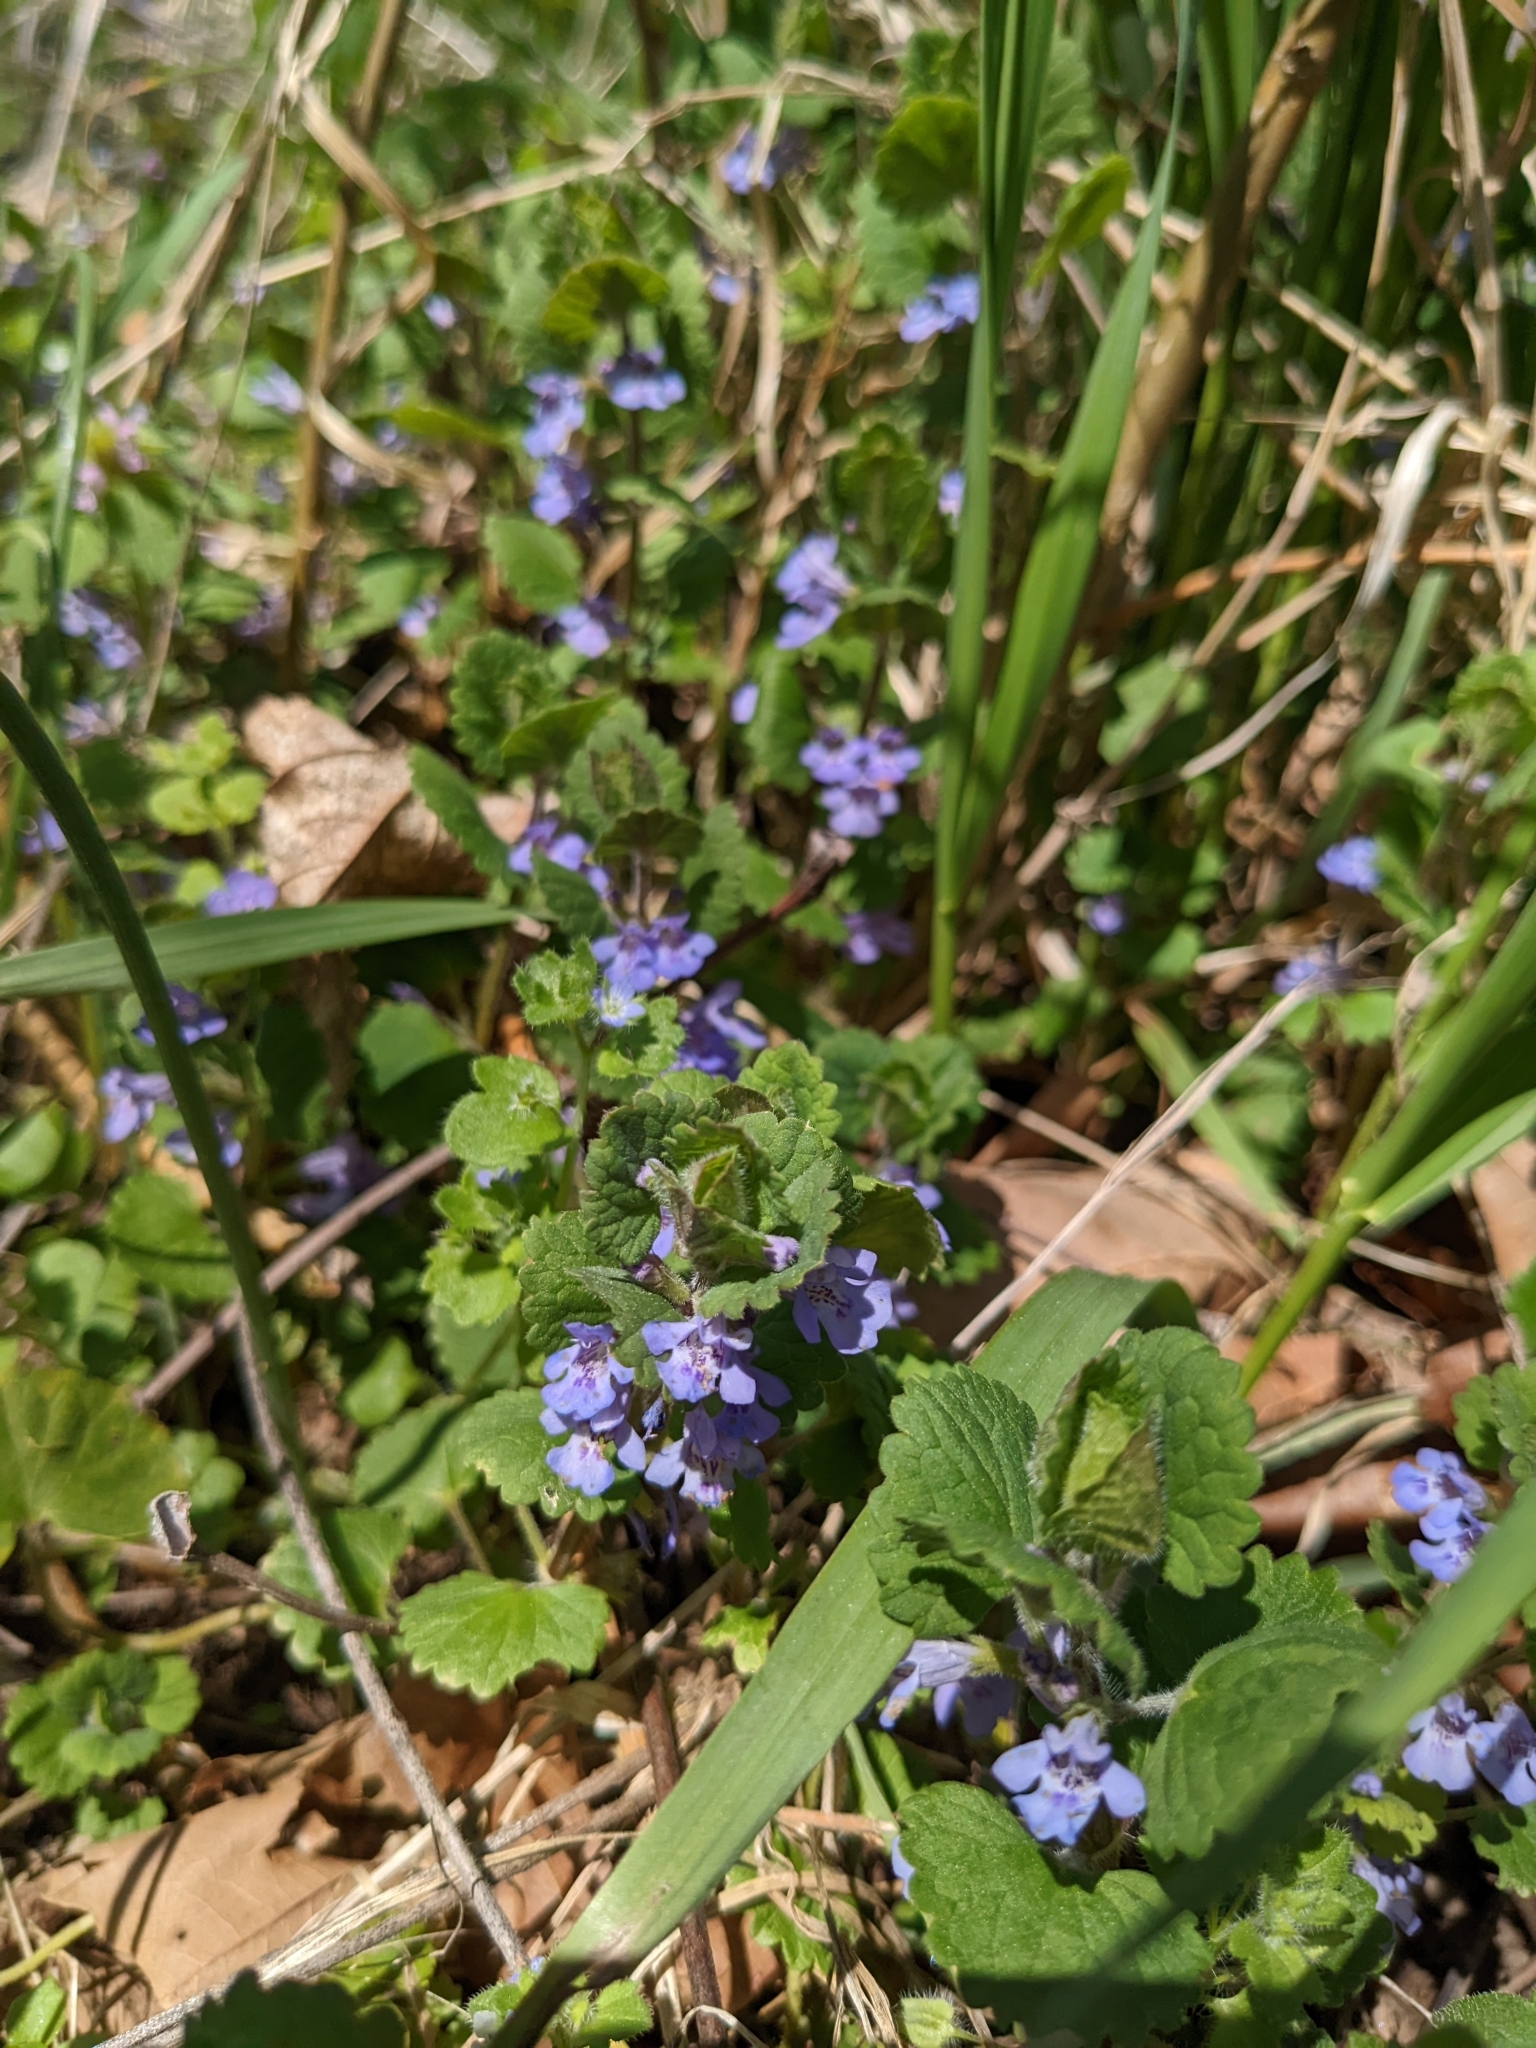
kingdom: Plantae
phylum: Tracheophyta
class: Magnoliopsida
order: Lamiales
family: Lamiaceae
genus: Glechoma
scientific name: Glechoma hederacea
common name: Ground ivy
